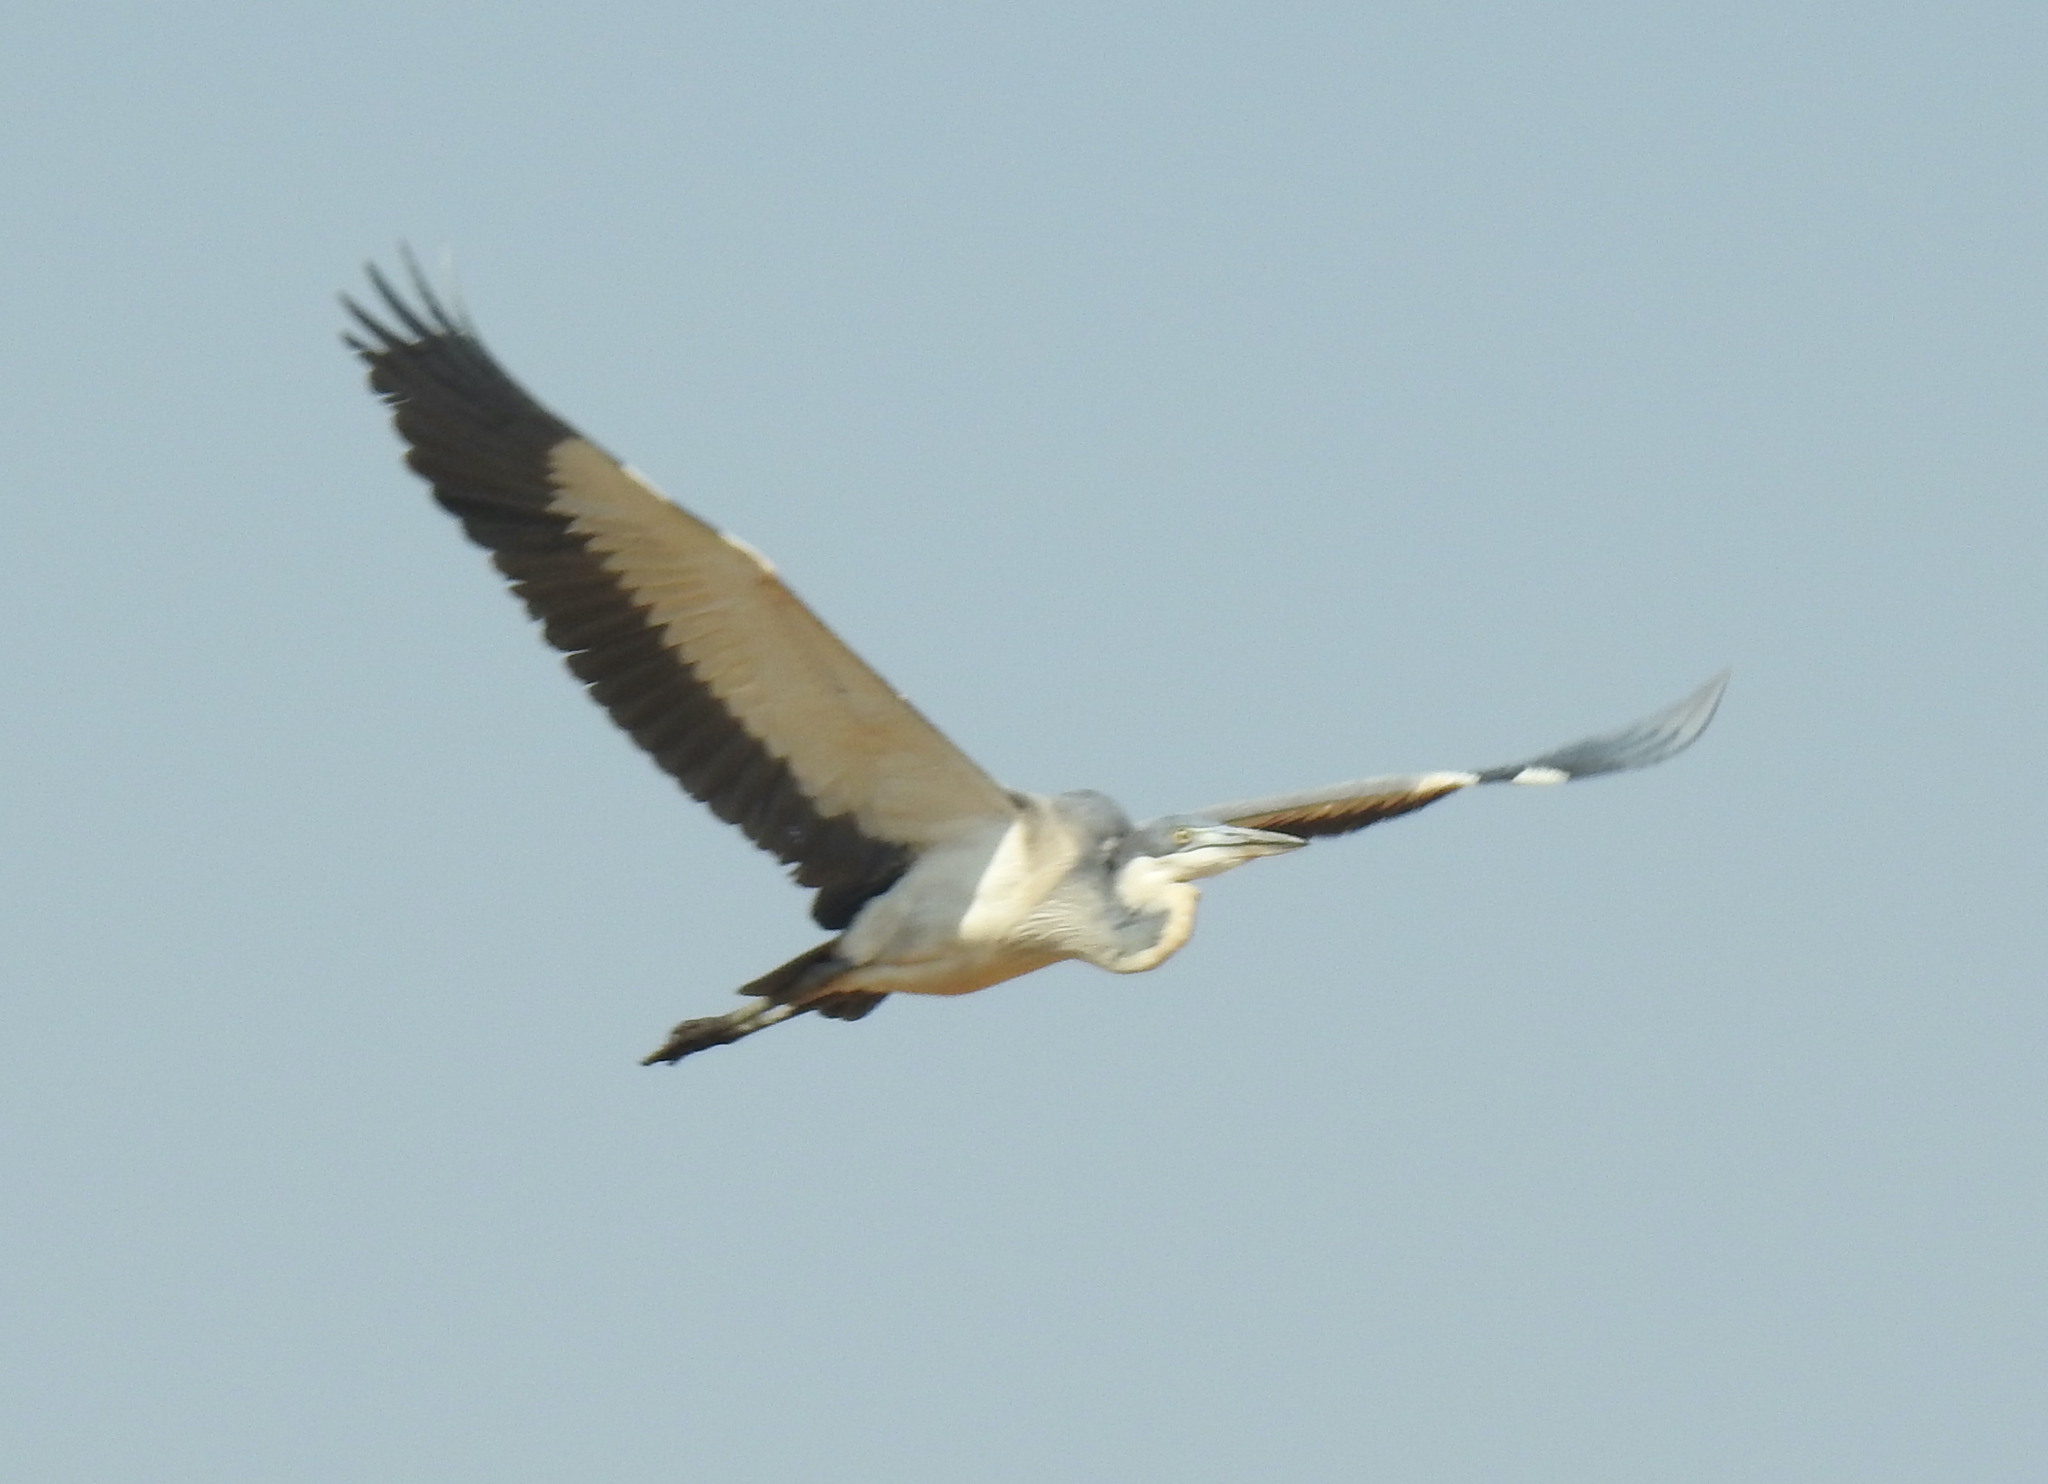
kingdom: Animalia
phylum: Chordata
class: Aves
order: Pelecaniformes
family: Ardeidae
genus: Ardea
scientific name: Ardea melanocephala
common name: Black-headed heron
